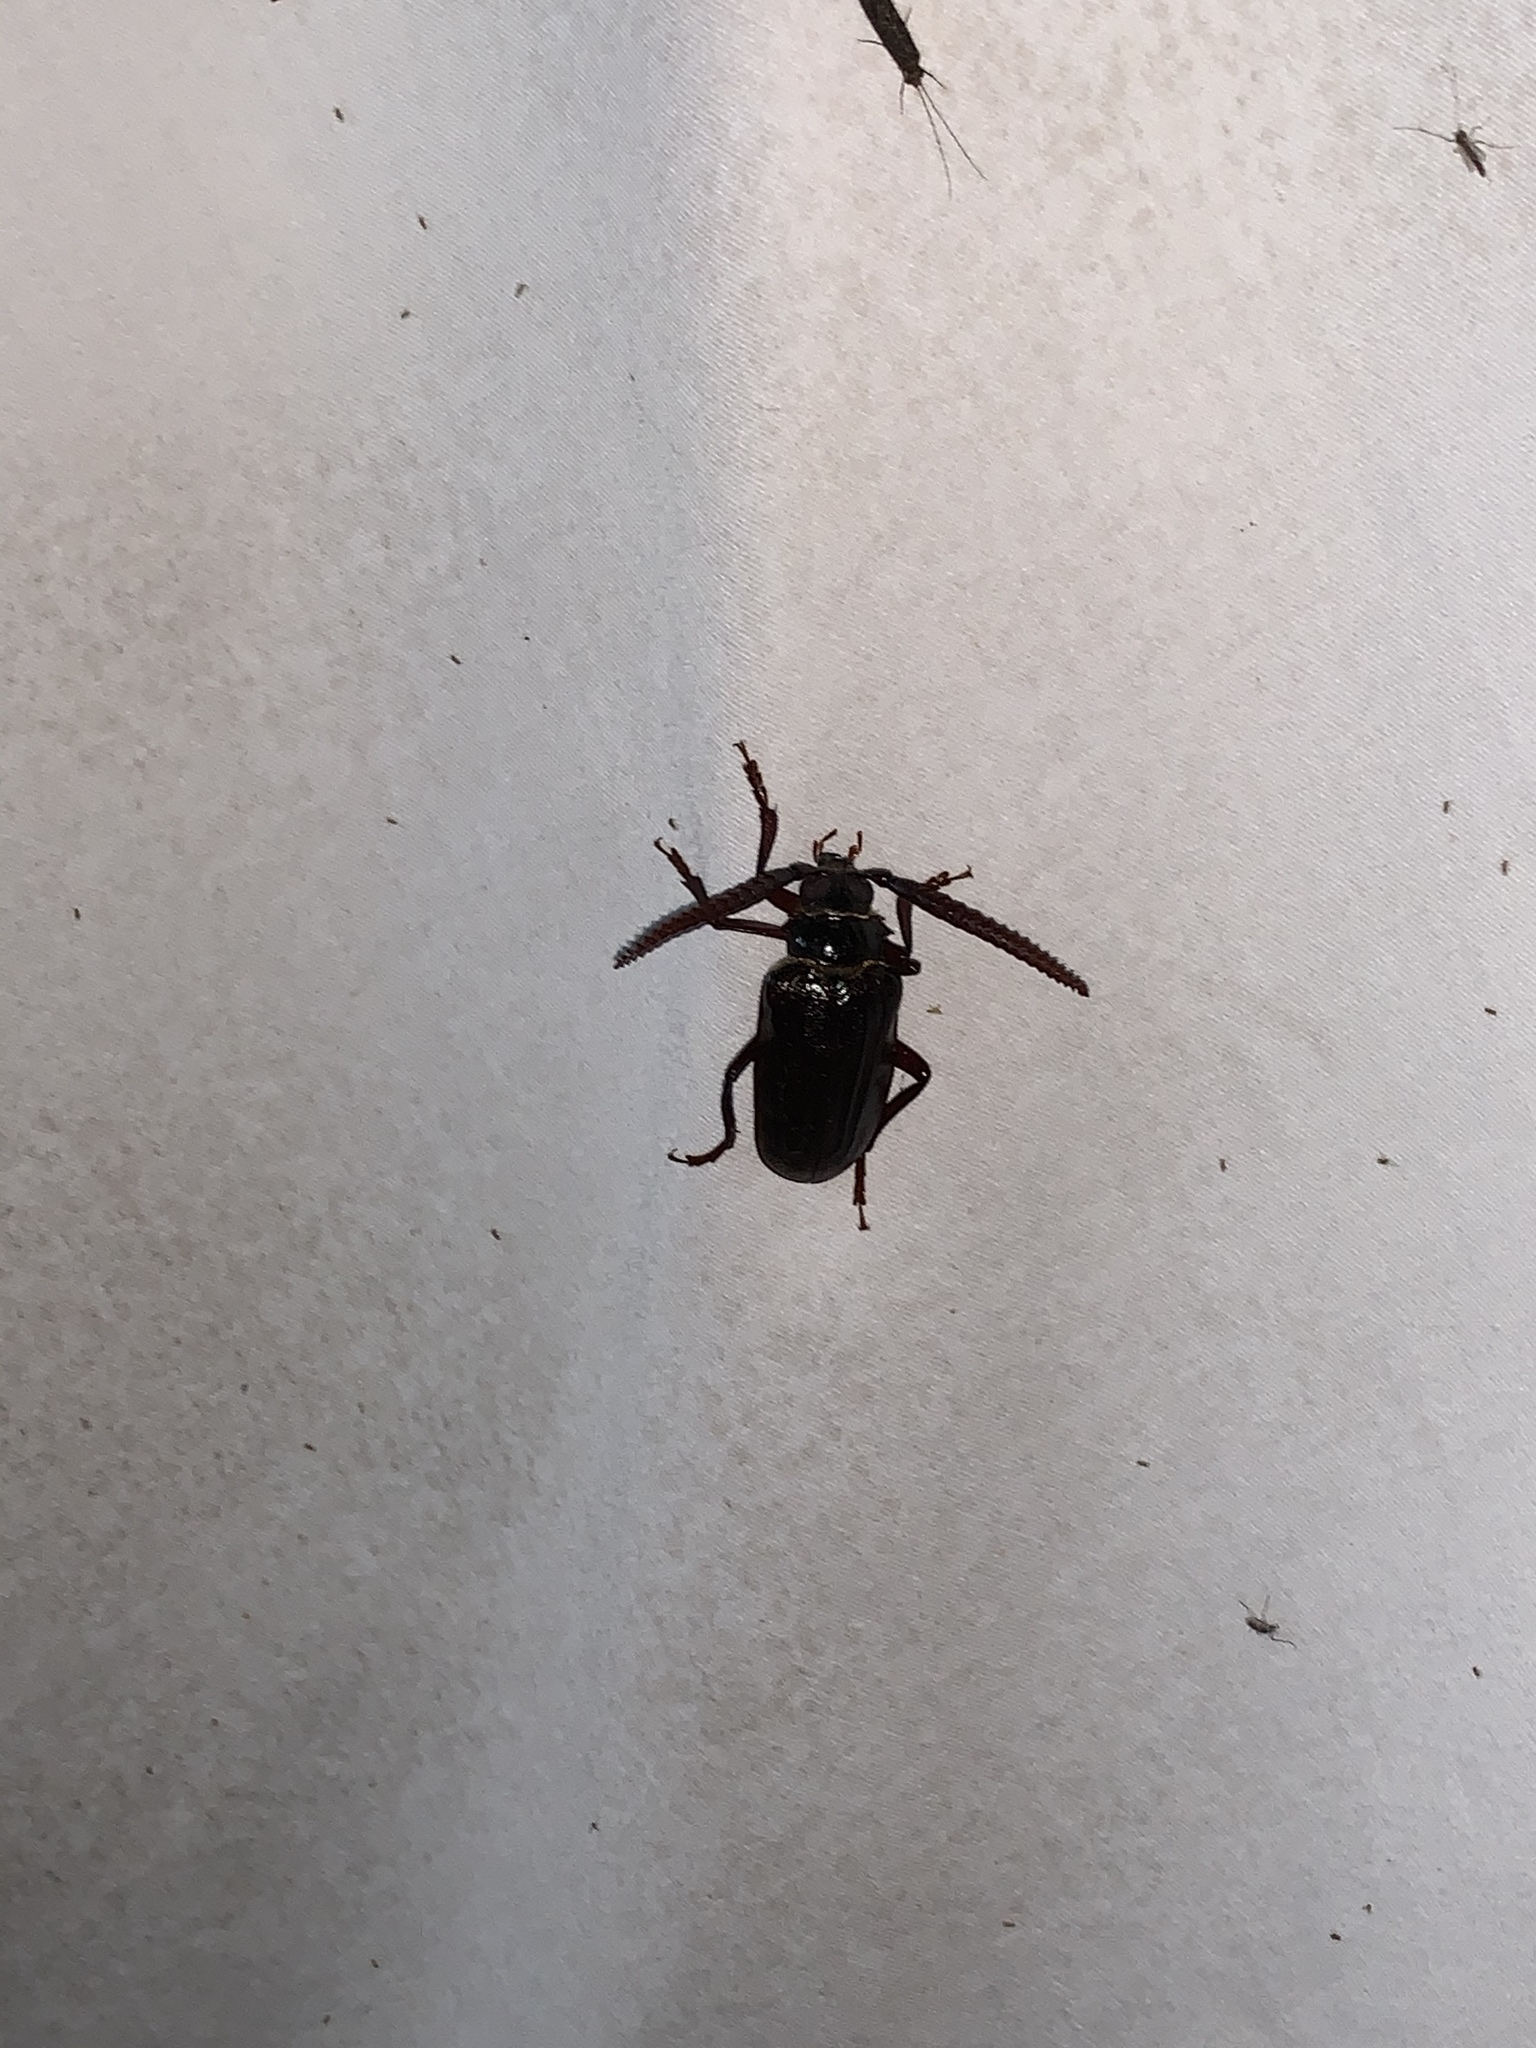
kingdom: Animalia
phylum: Arthropoda
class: Insecta
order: Coleoptera
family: Cerambycidae
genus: Prionus
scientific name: Prionus imbricornis
